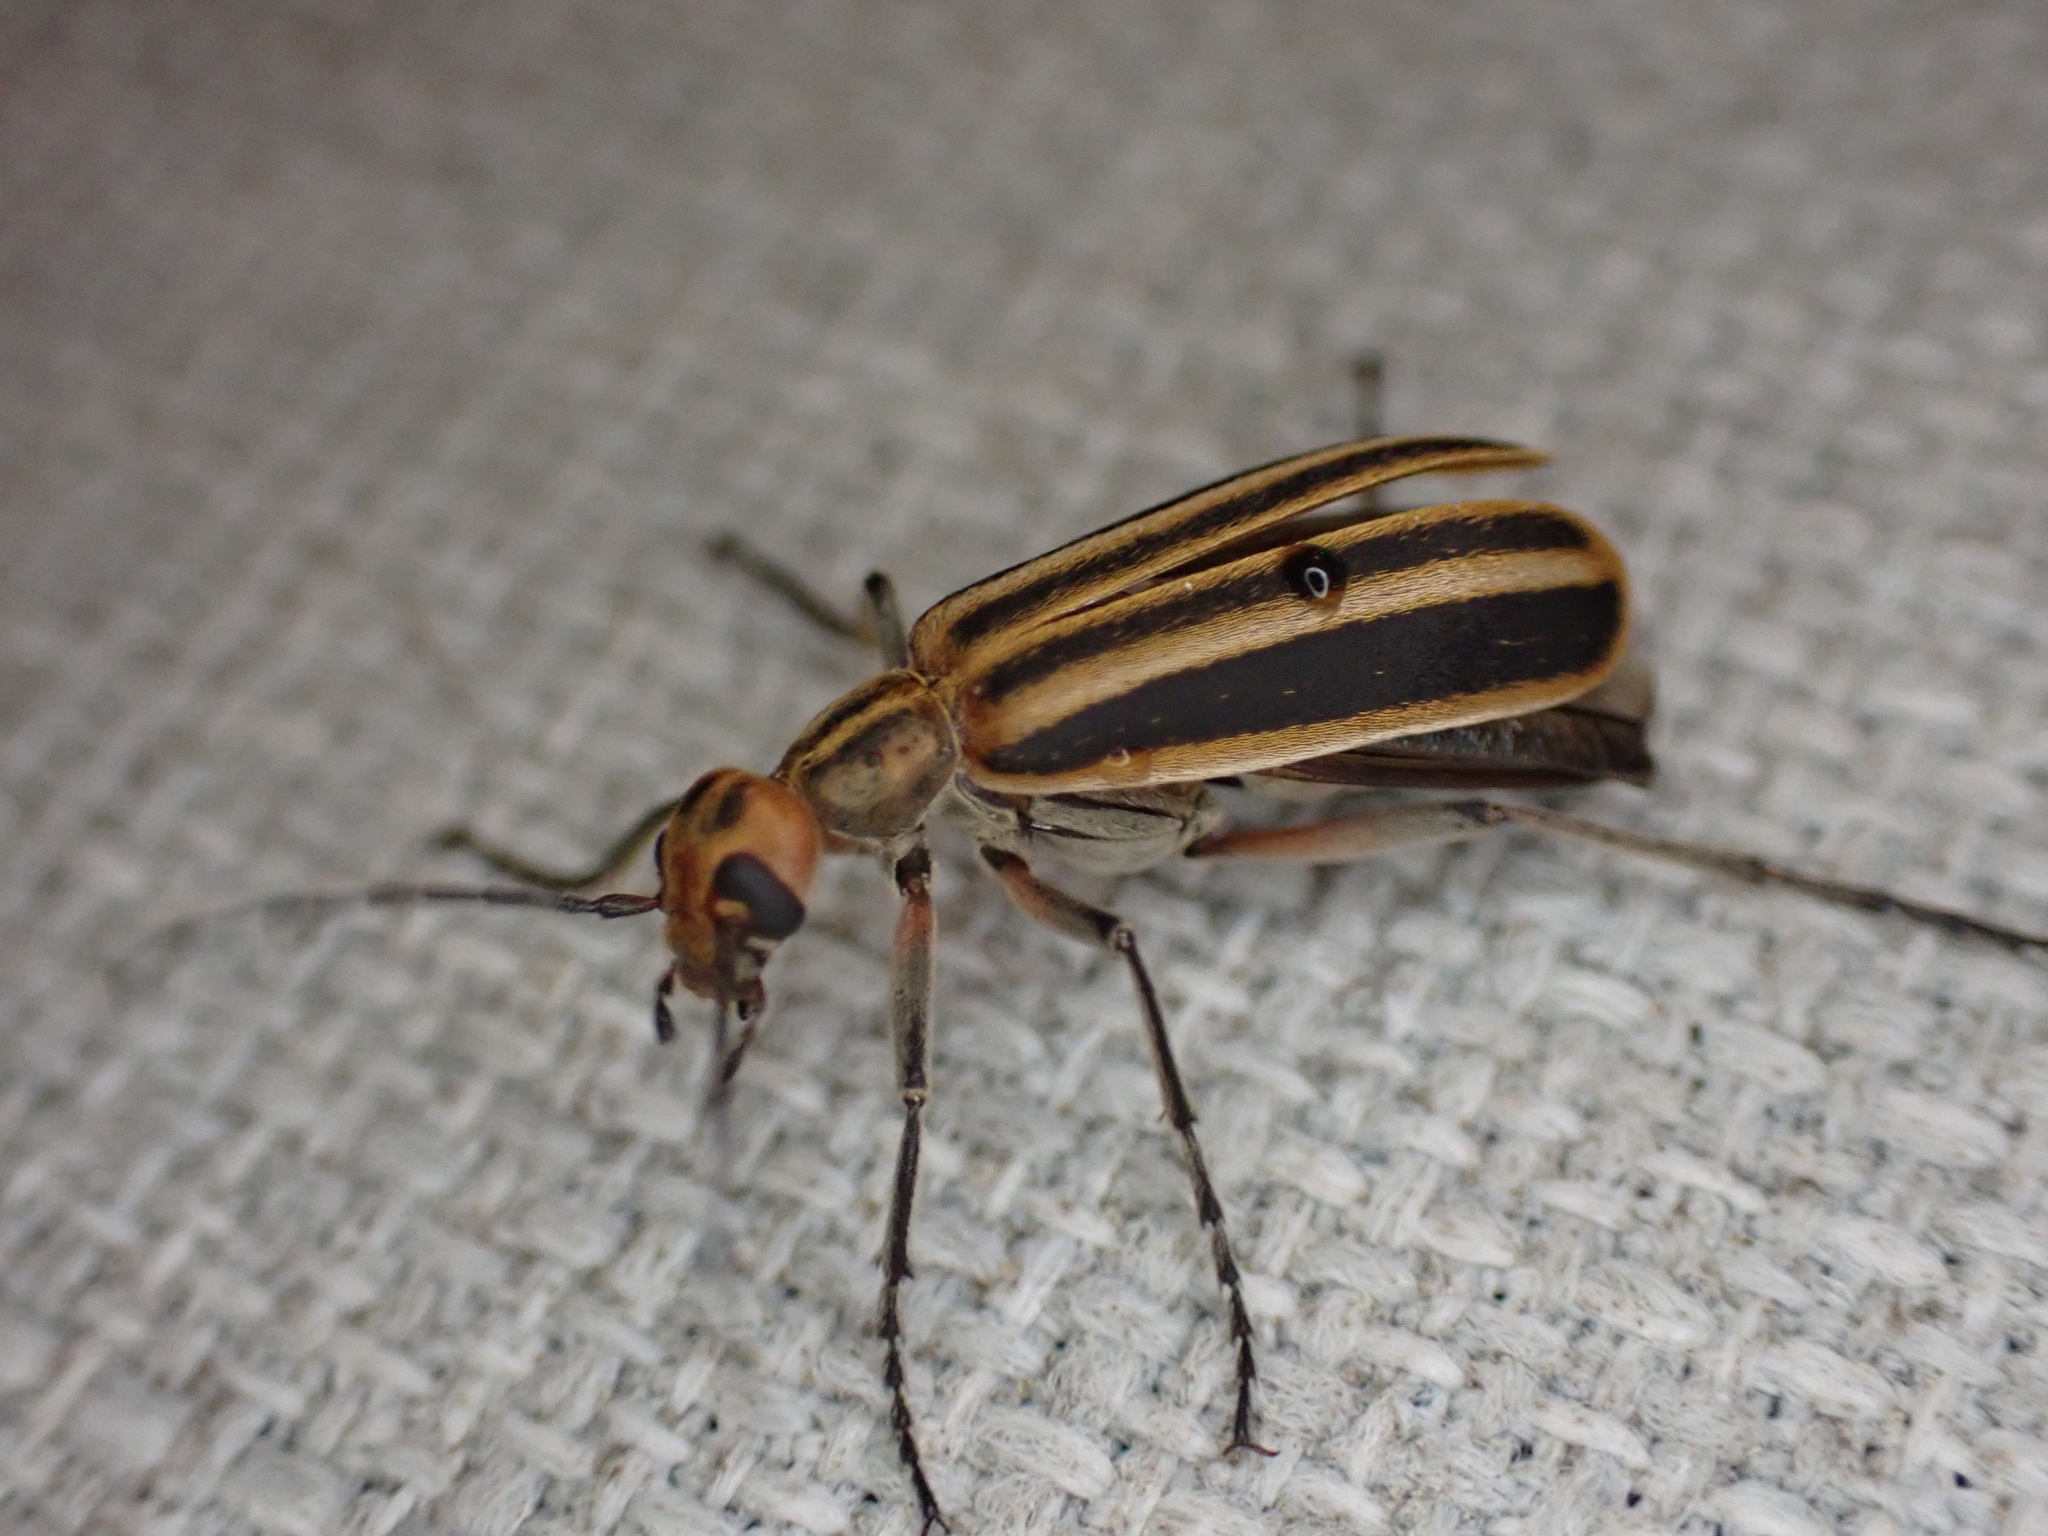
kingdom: Animalia
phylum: Arthropoda
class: Insecta
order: Coleoptera
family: Meloidae
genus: Epicauta
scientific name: Epicauta vittata
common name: Old-fashioned potato beetle
